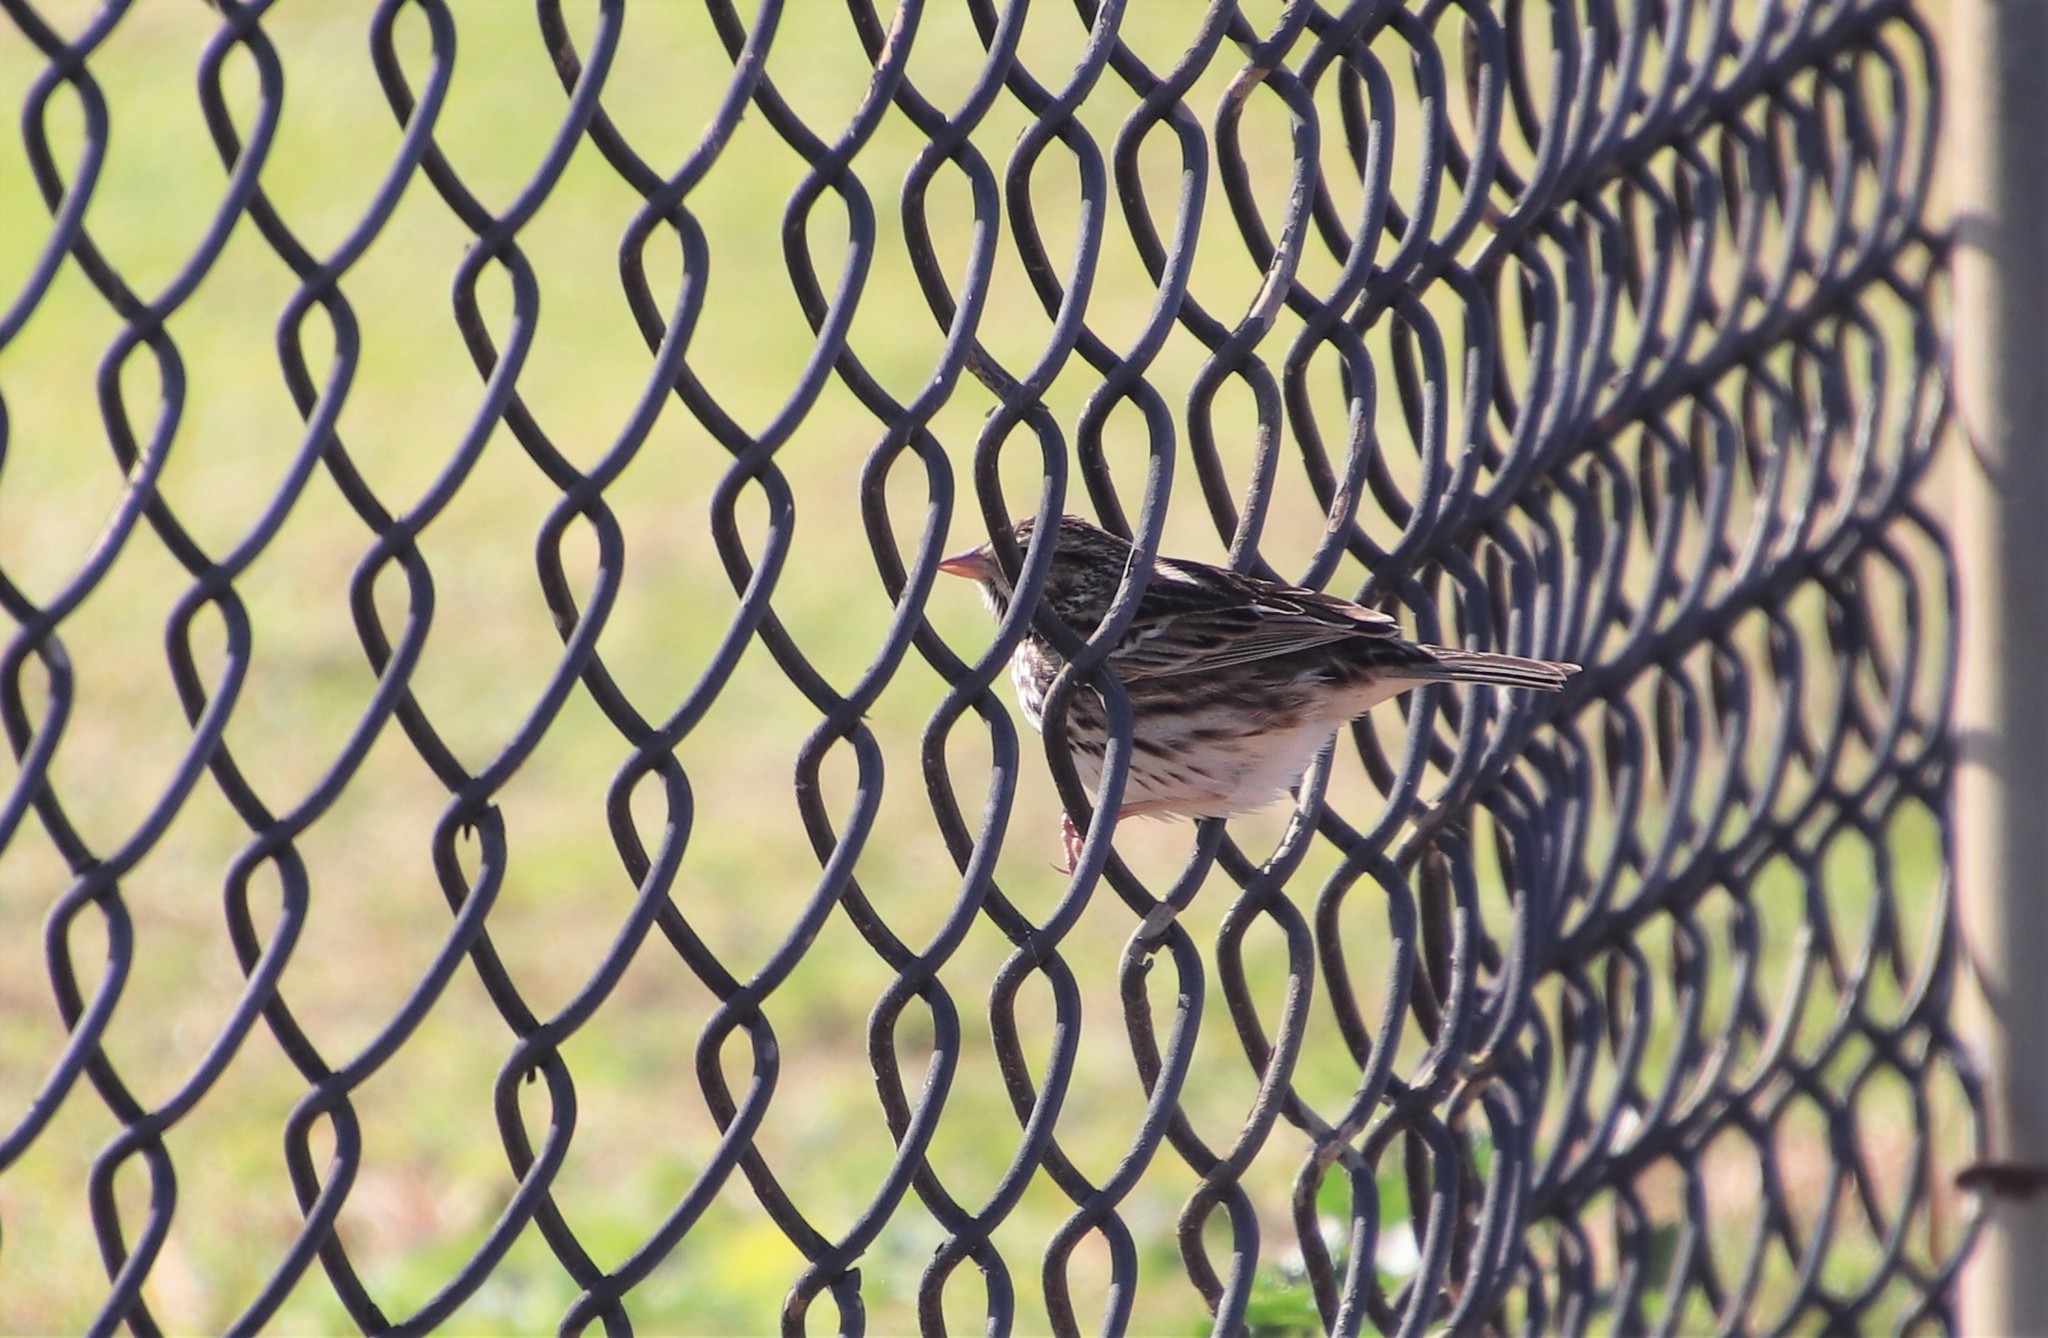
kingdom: Animalia
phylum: Chordata
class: Aves
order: Passeriformes
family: Passerellidae
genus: Passerculus
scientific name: Passerculus sandwichensis
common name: Savannah sparrow
